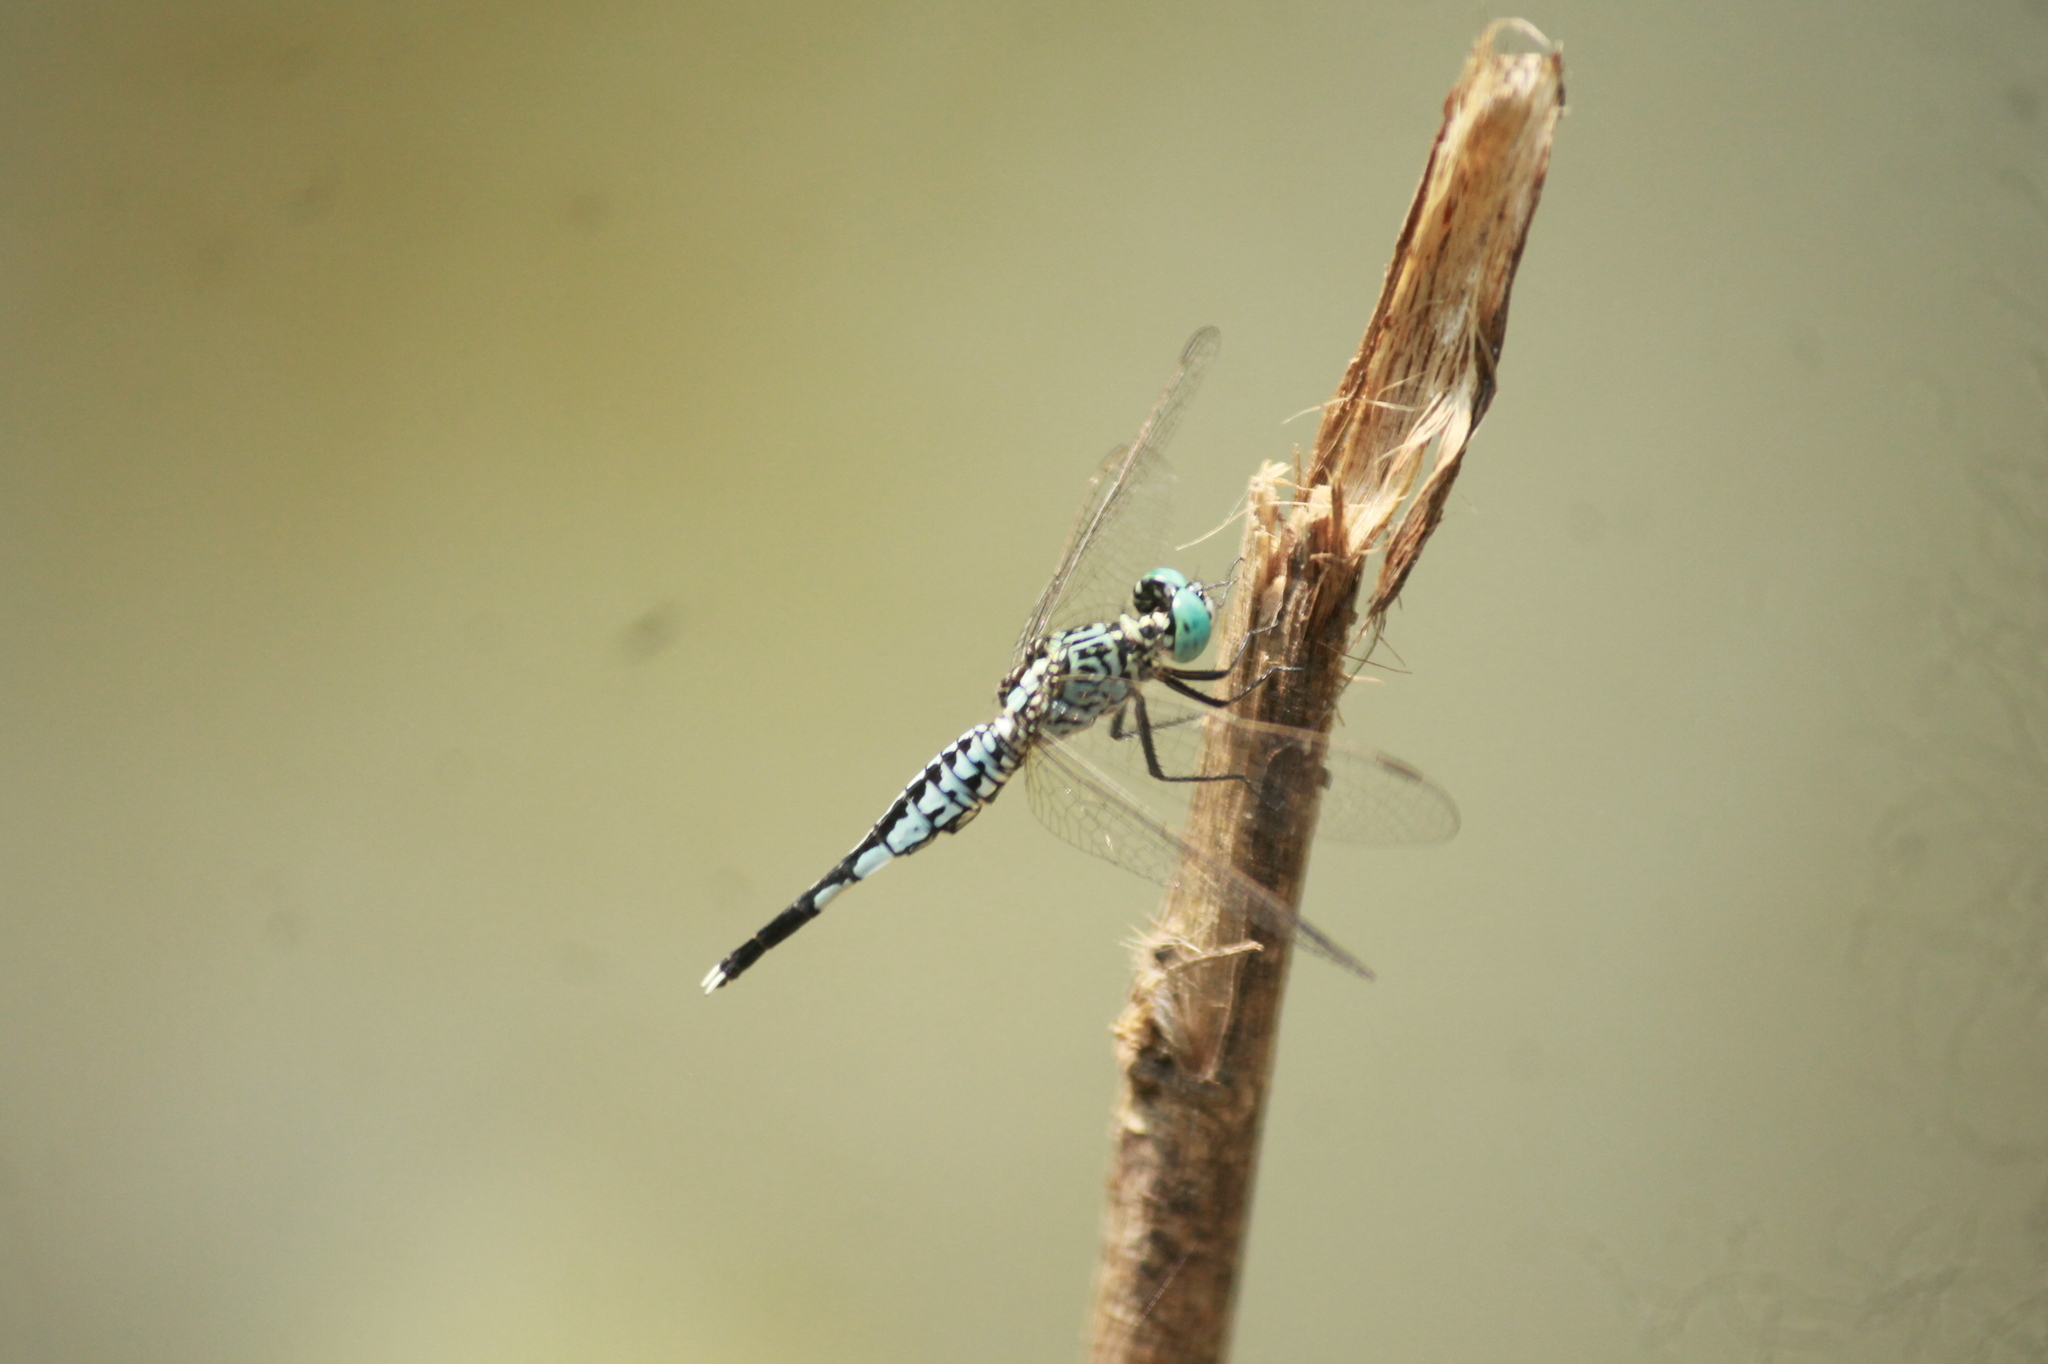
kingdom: Animalia
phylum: Arthropoda
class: Insecta
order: Odonata
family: Libellulidae
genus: Acisoma
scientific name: Acisoma panorpoides
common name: Asian pintail
